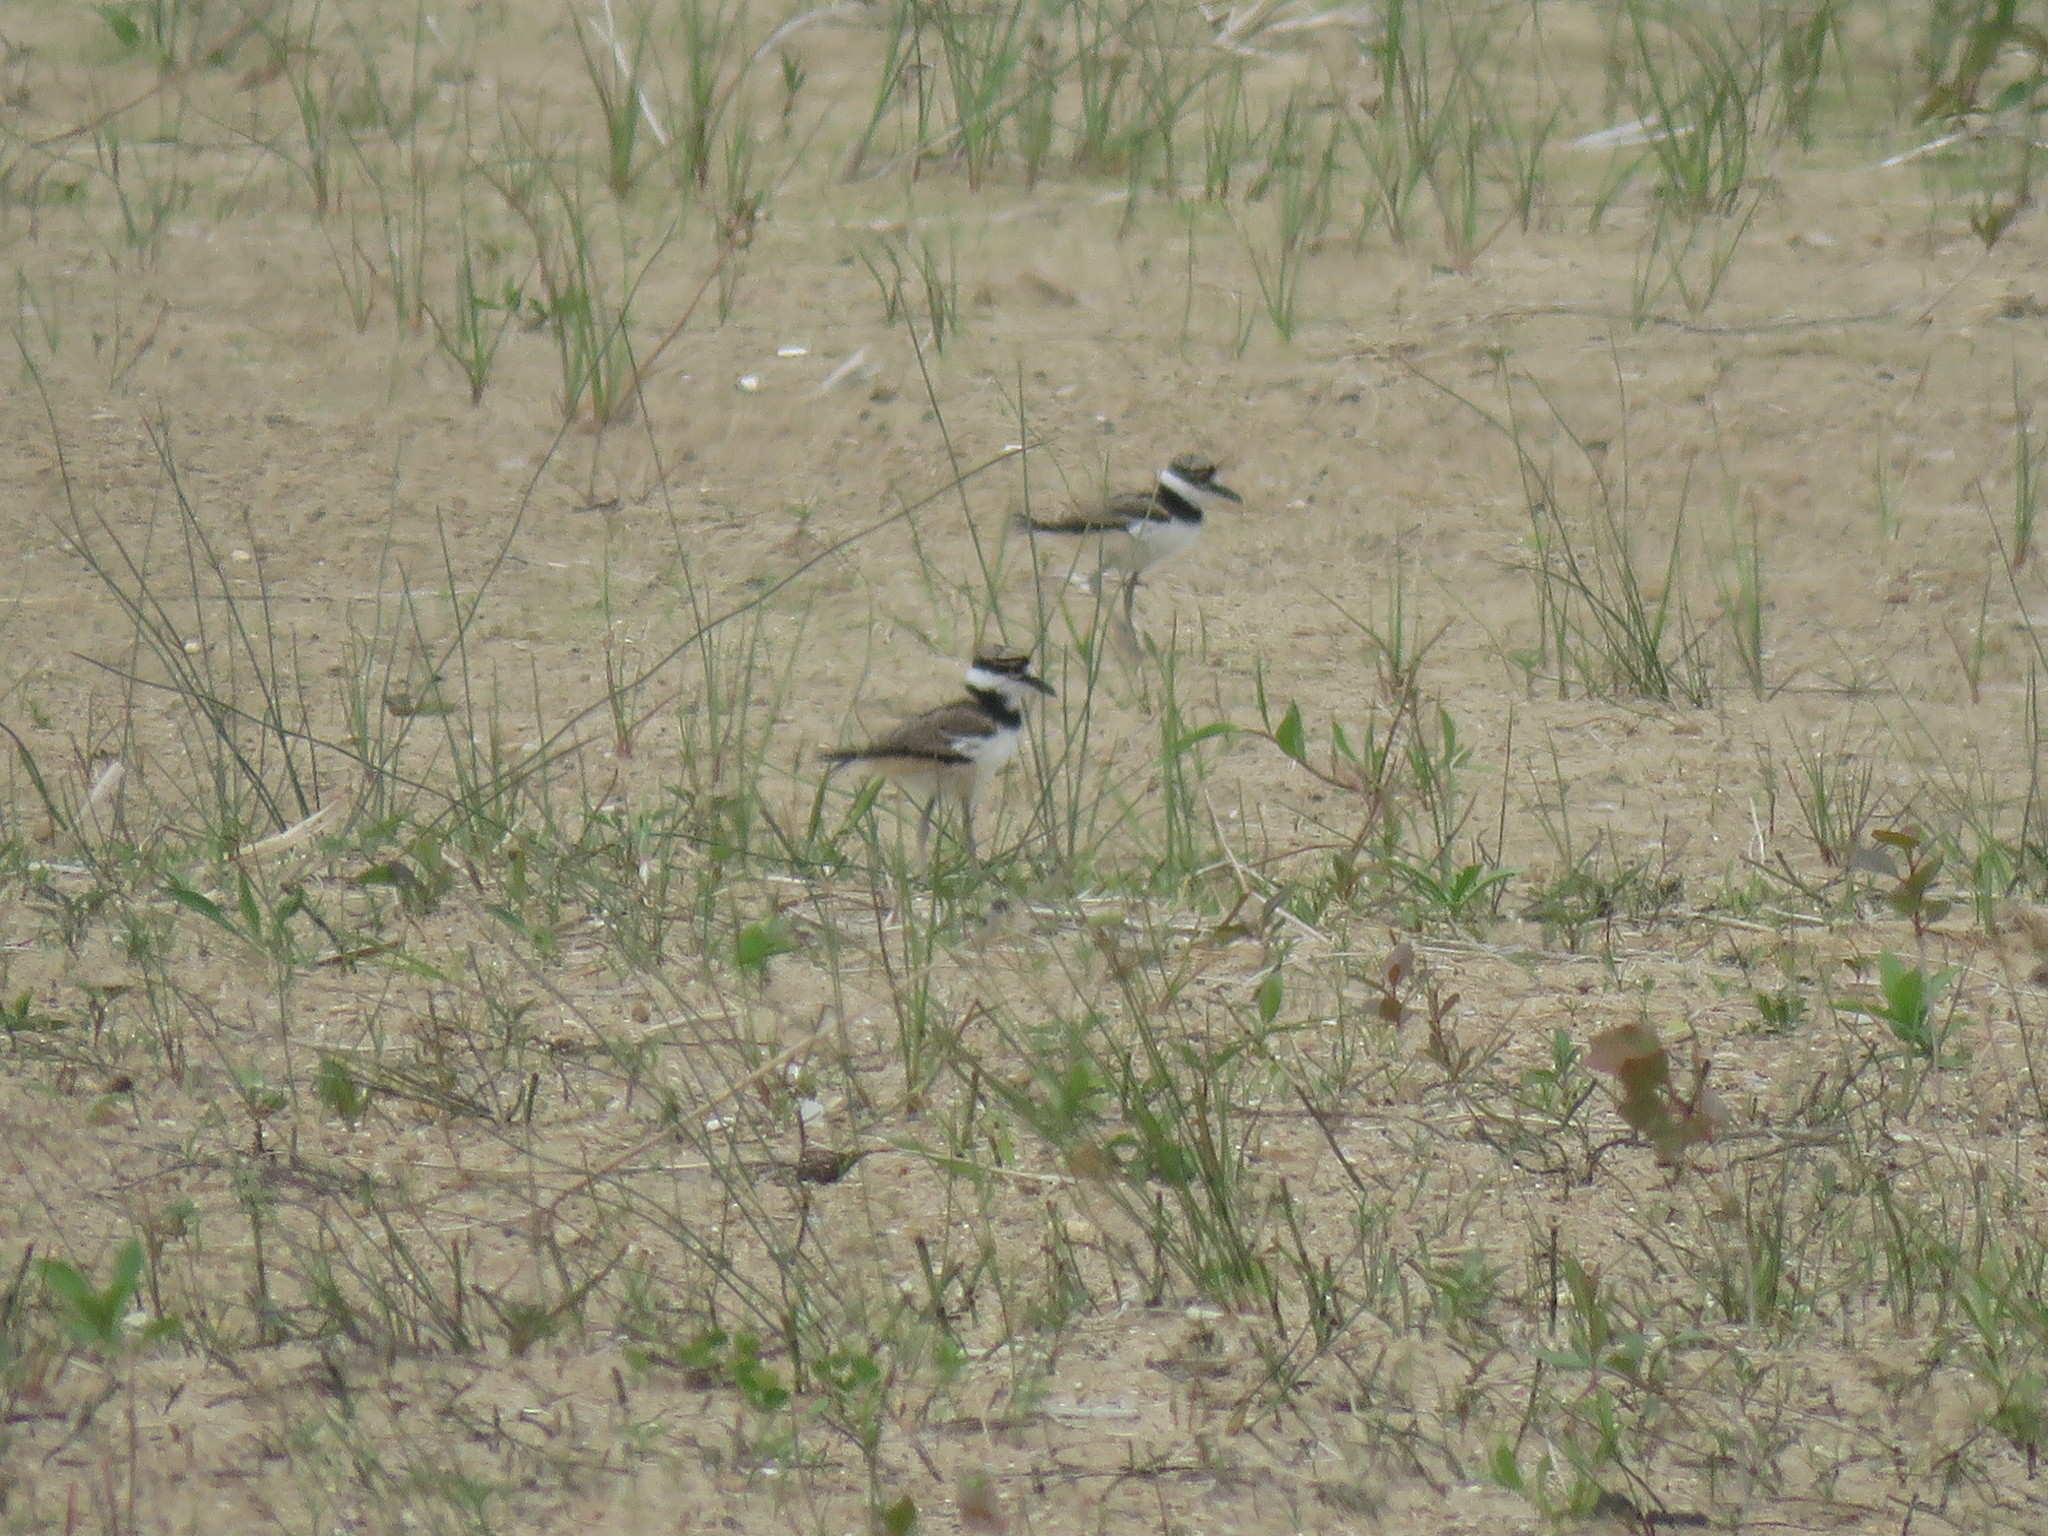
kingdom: Animalia
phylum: Chordata
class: Aves
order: Charadriiformes
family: Charadriidae
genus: Charadrius
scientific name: Charadrius vociferus
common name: Killdeer
